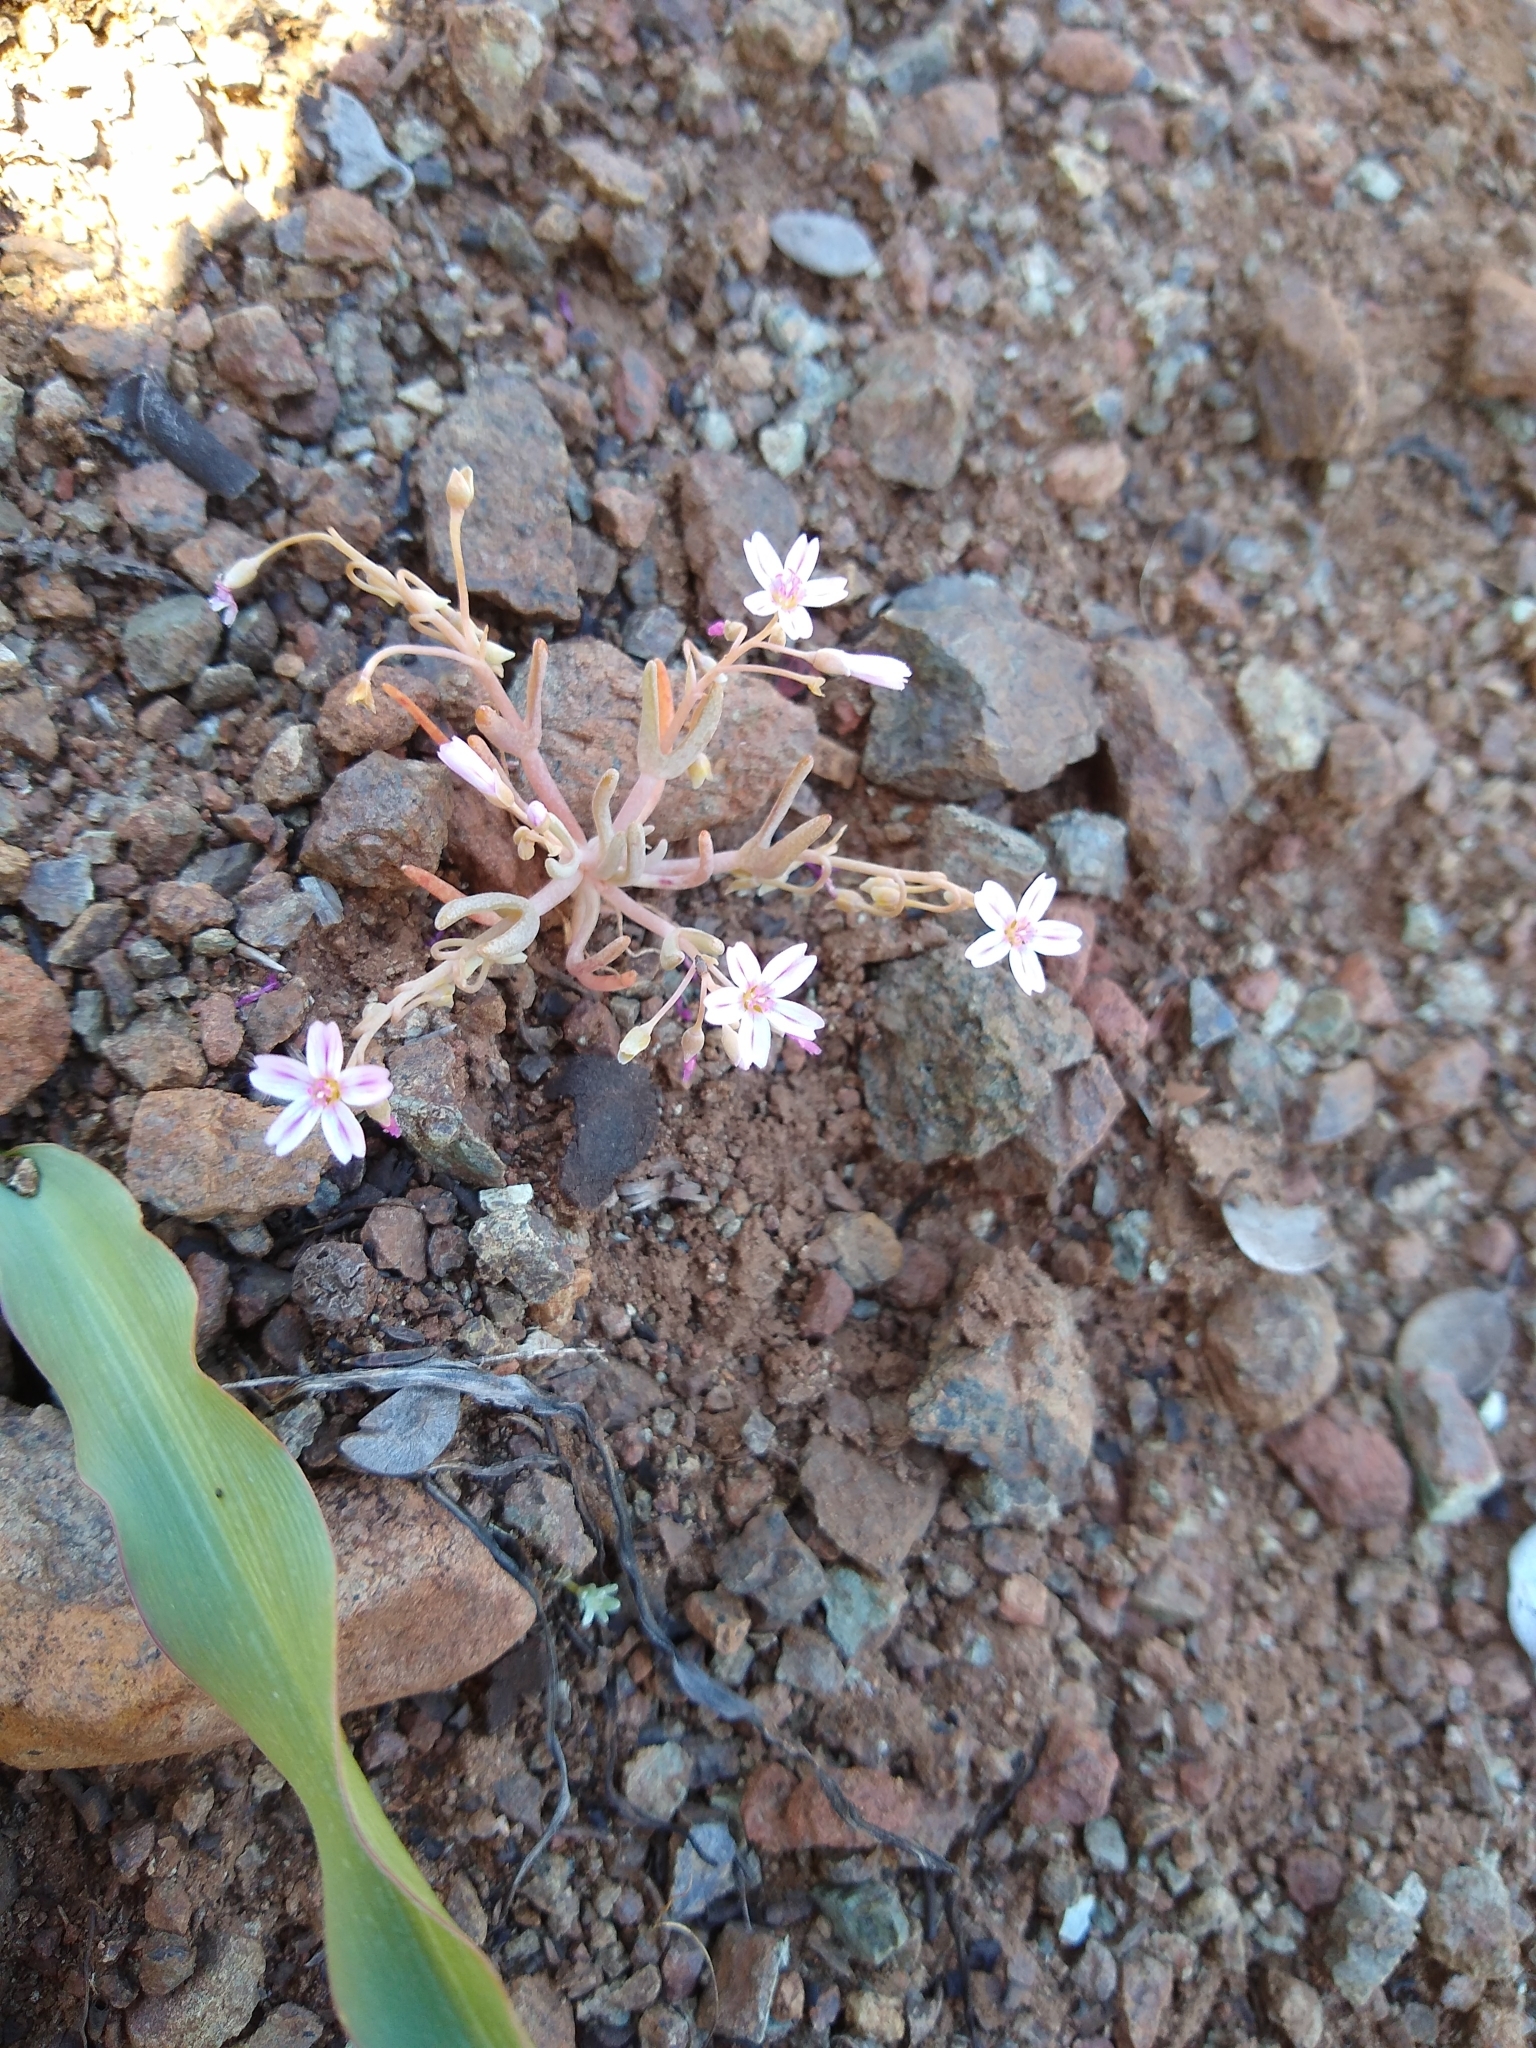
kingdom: Plantae
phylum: Tracheophyta
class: Magnoliopsida
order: Caryophyllales
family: Montiaceae
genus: Claytonia
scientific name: Claytonia gypsophiloides
